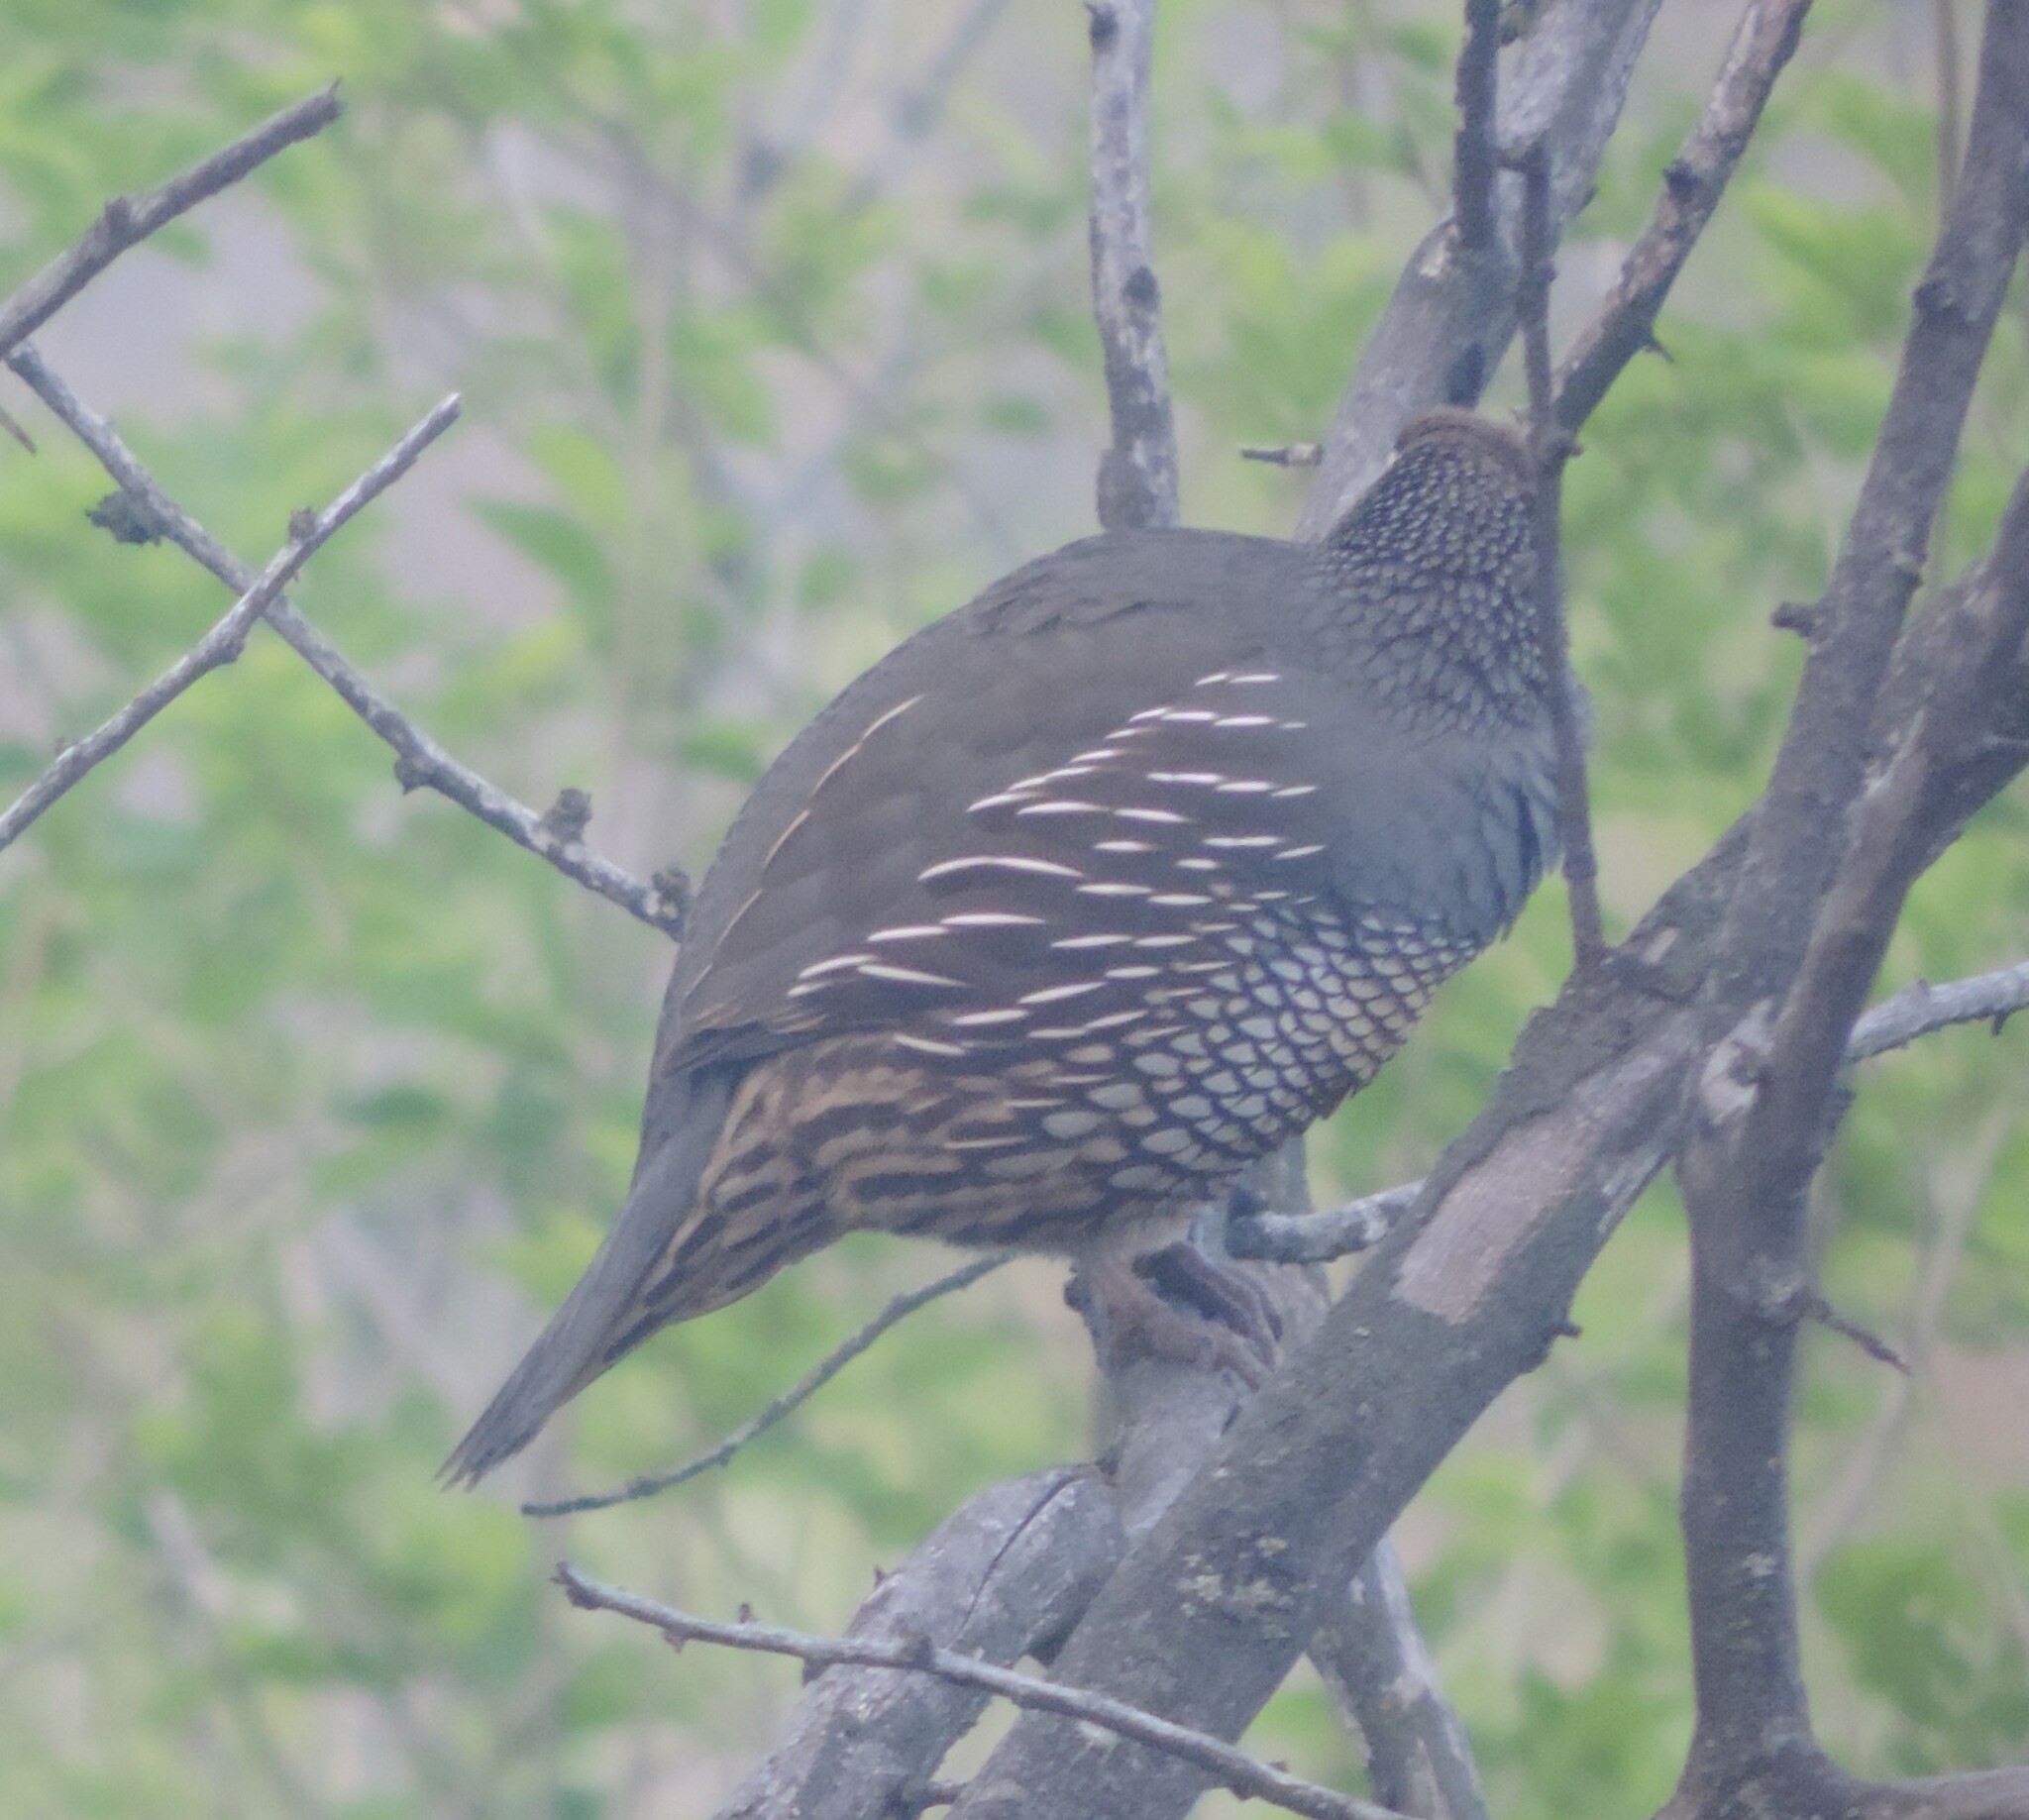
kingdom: Animalia
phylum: Chordata
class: Aves
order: Galliformes
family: Odontophoridae
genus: Callipepla
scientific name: Callipepla californica
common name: California quail
